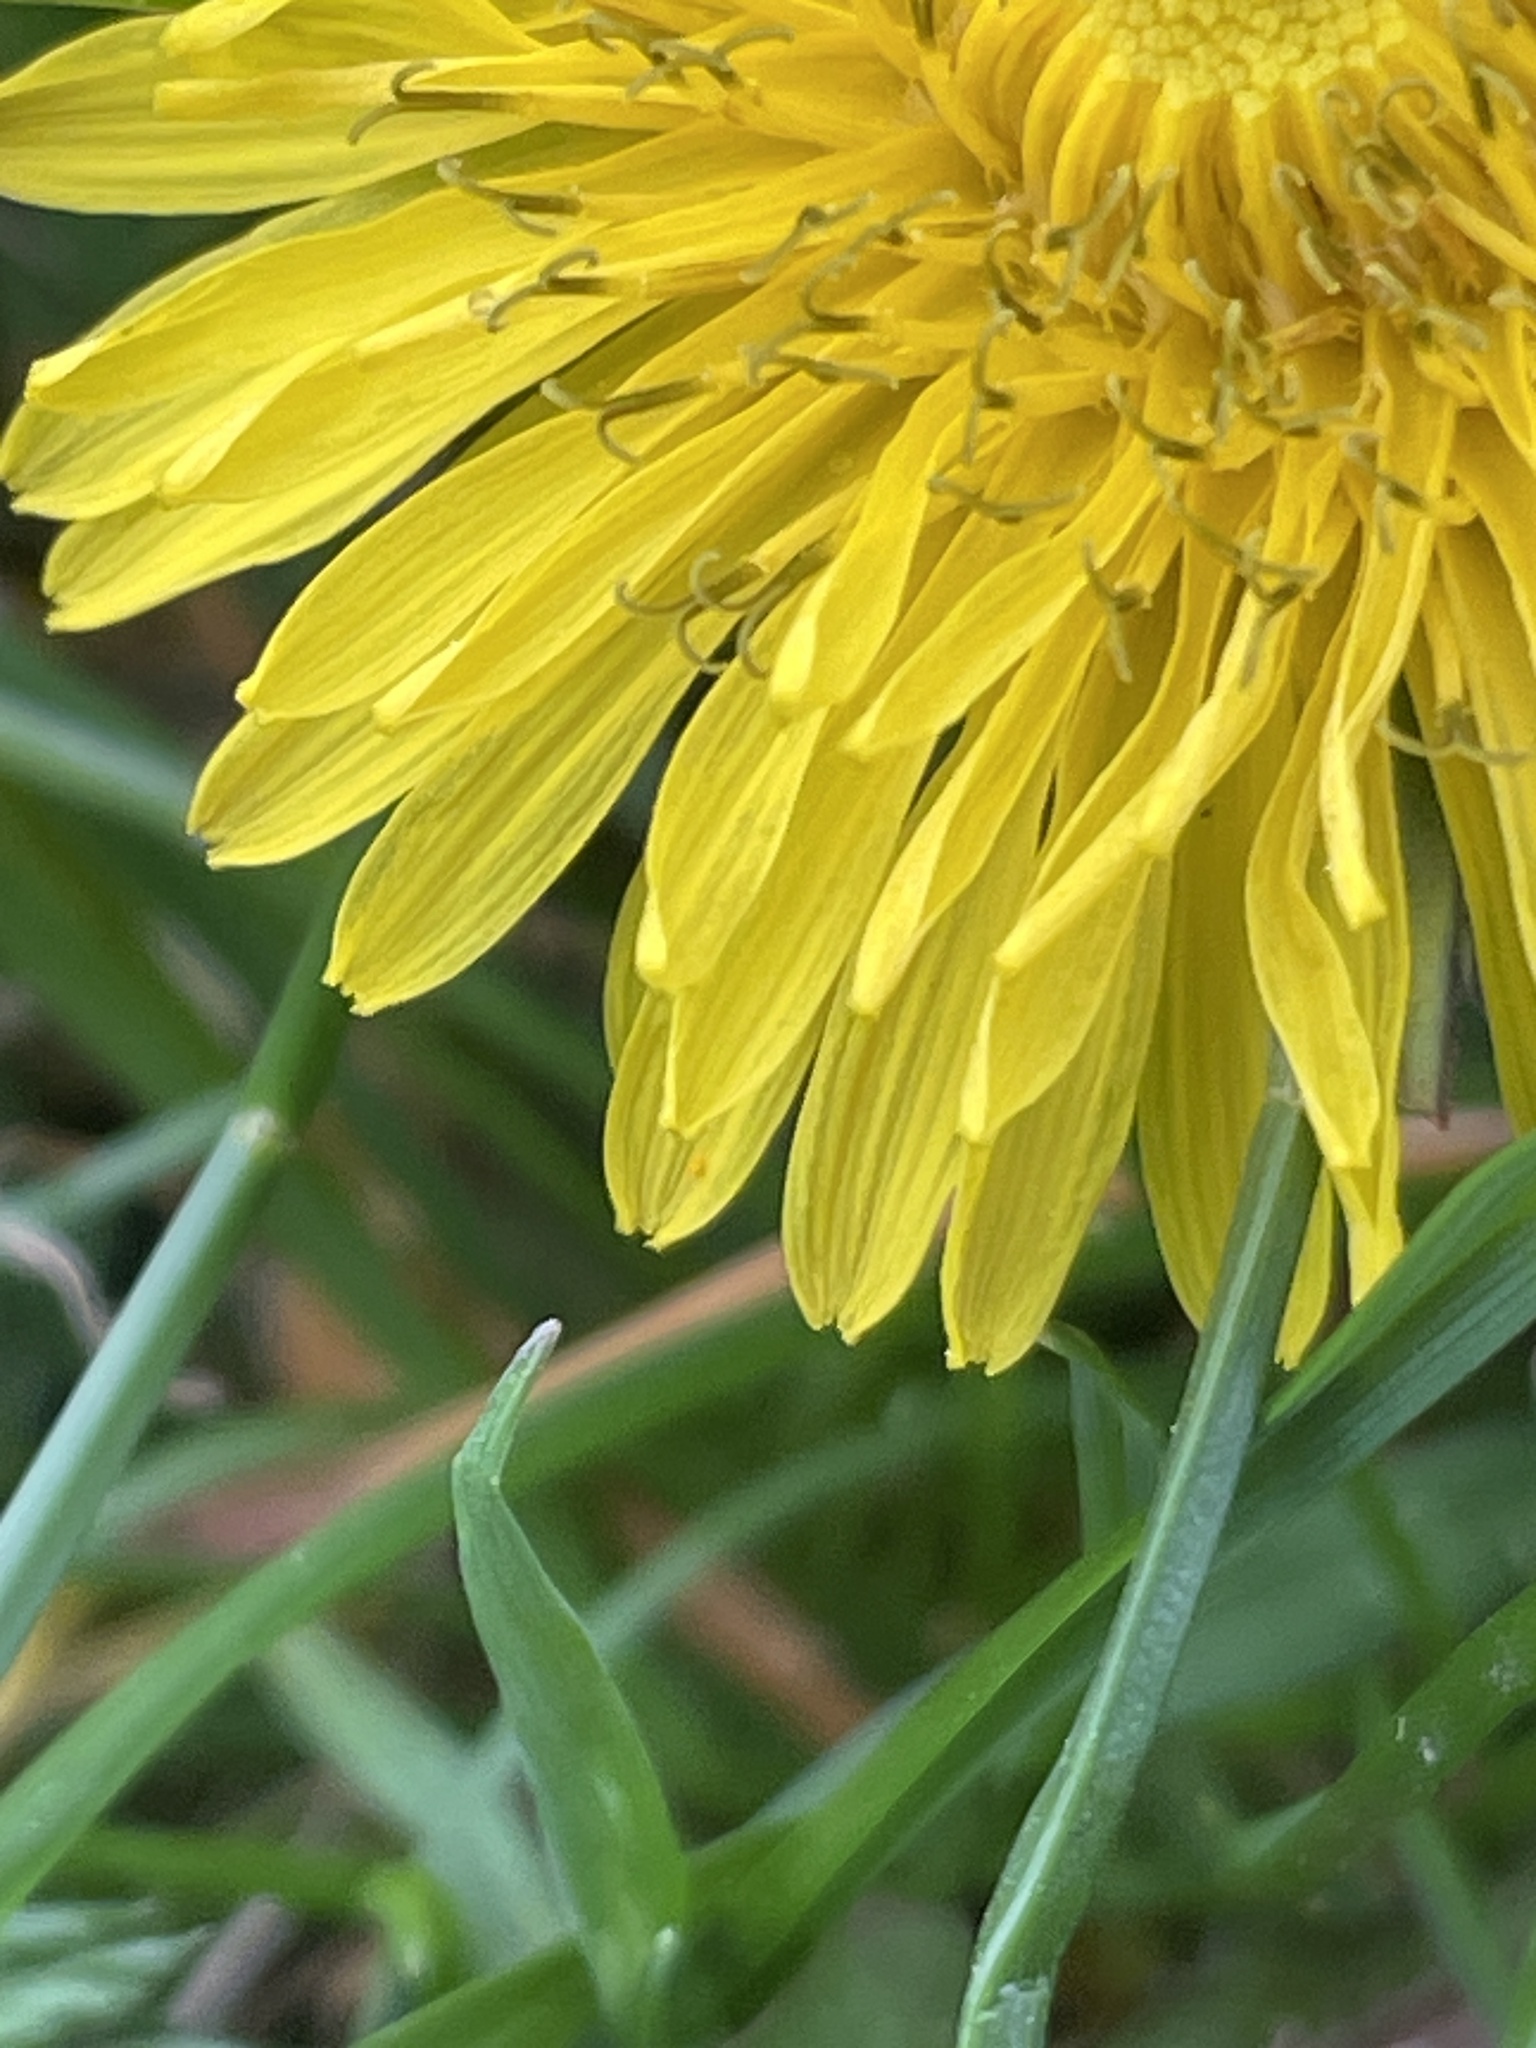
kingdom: Plantae
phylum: Tracheophyta
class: Magnoliopsida
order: Asterales
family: Asteraceae
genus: Taraxacum
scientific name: Taraxacum
